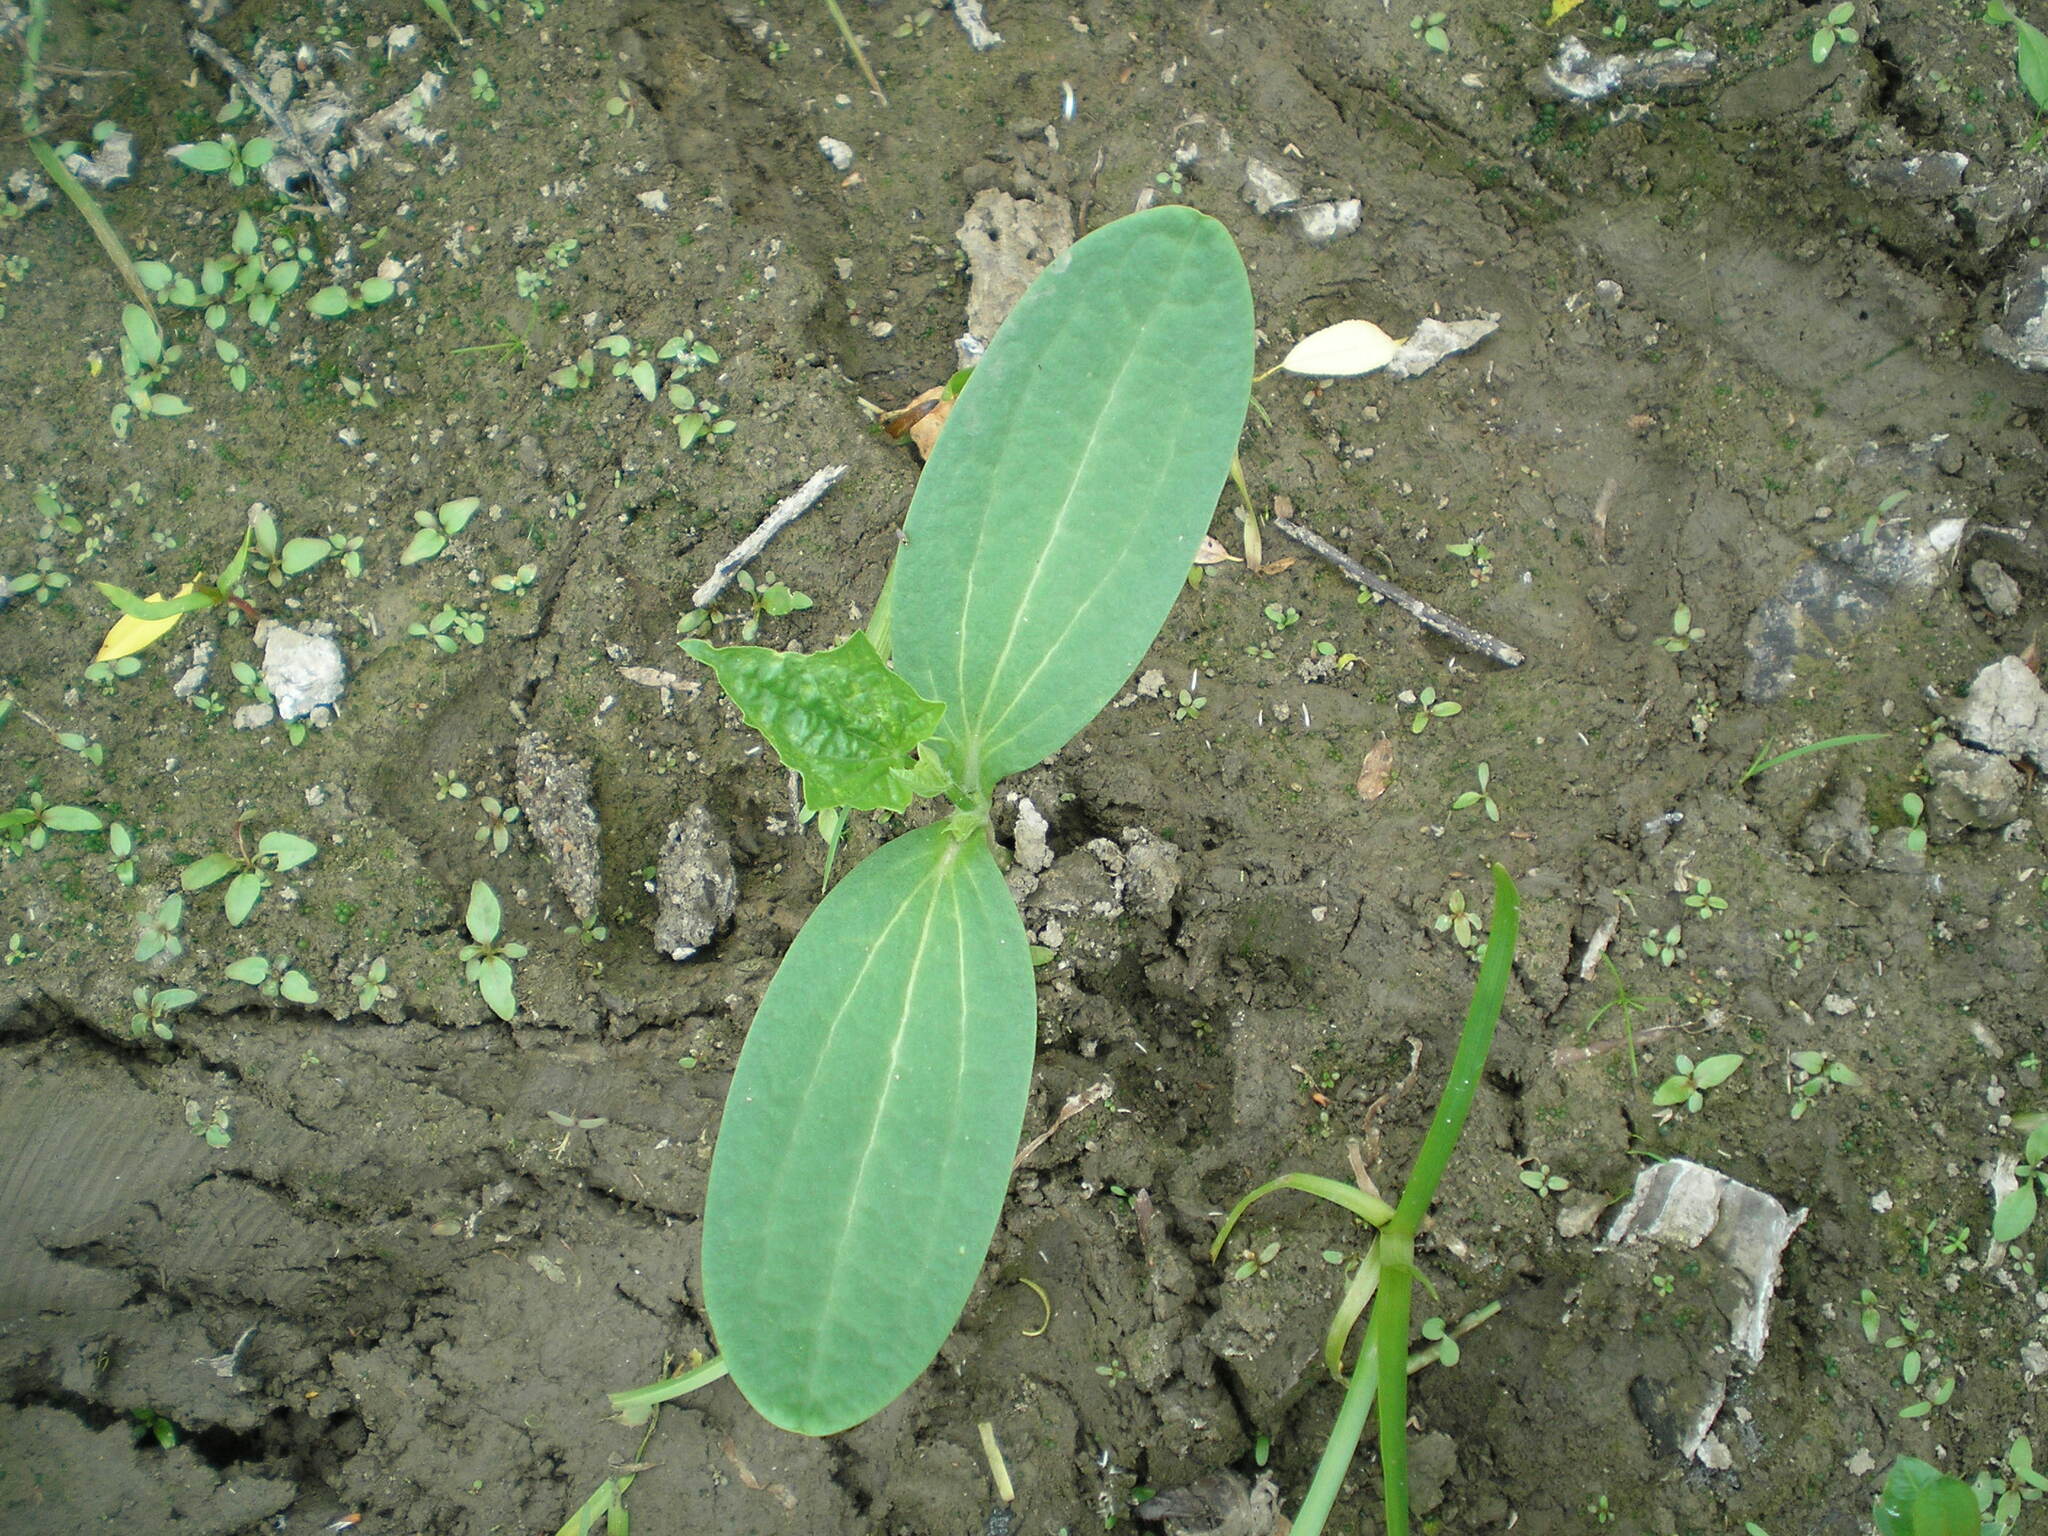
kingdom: Plantae
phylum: Tracheophyta
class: Magnoliopsida
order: Cucurbitales
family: Cucurbitaceae
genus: Echinocystis
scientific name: Echinocystis lobata
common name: Wild cucumber
